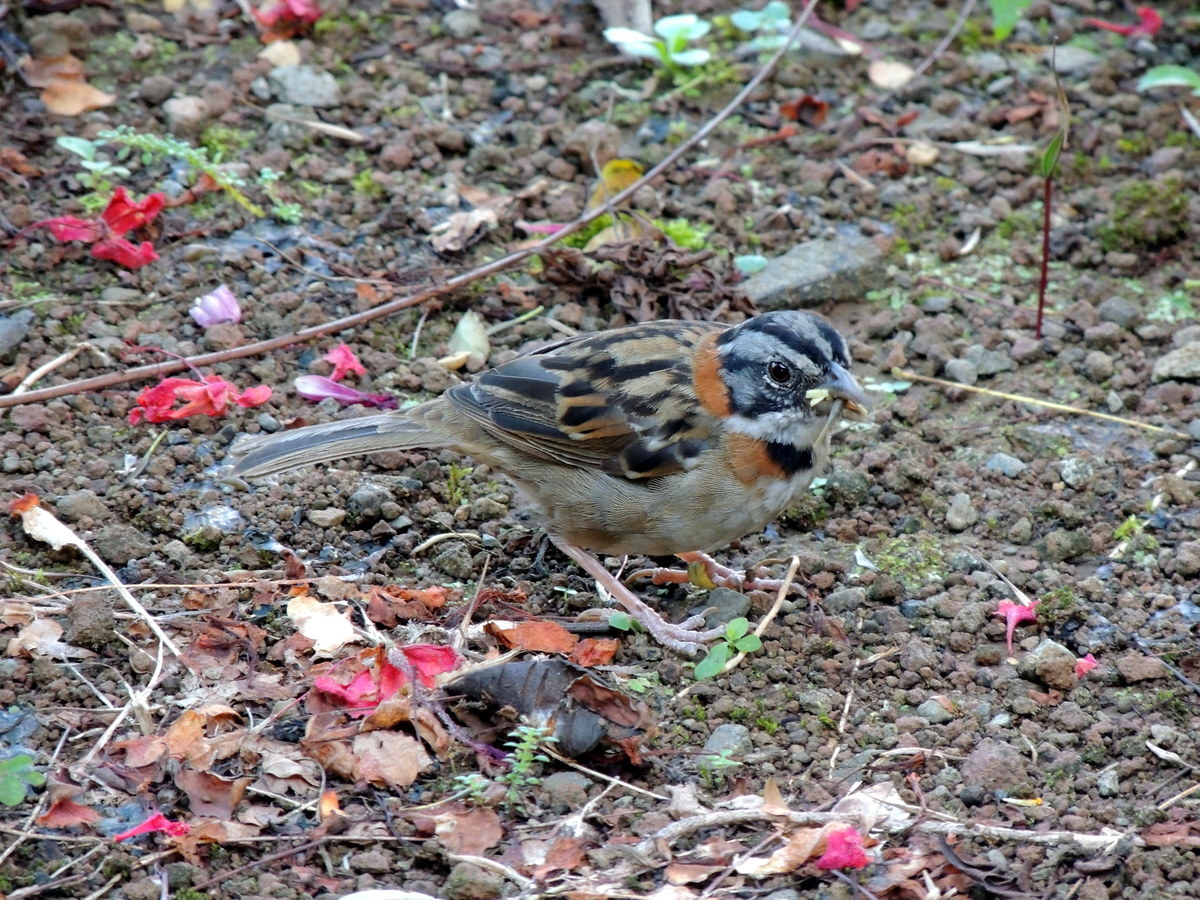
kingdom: Animalia
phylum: Chordata
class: Aves
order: Passeriformes
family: Passerellidae
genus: Zonotrichia
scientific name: Zonotrichia capensis
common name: Rufous-collared sparrow
